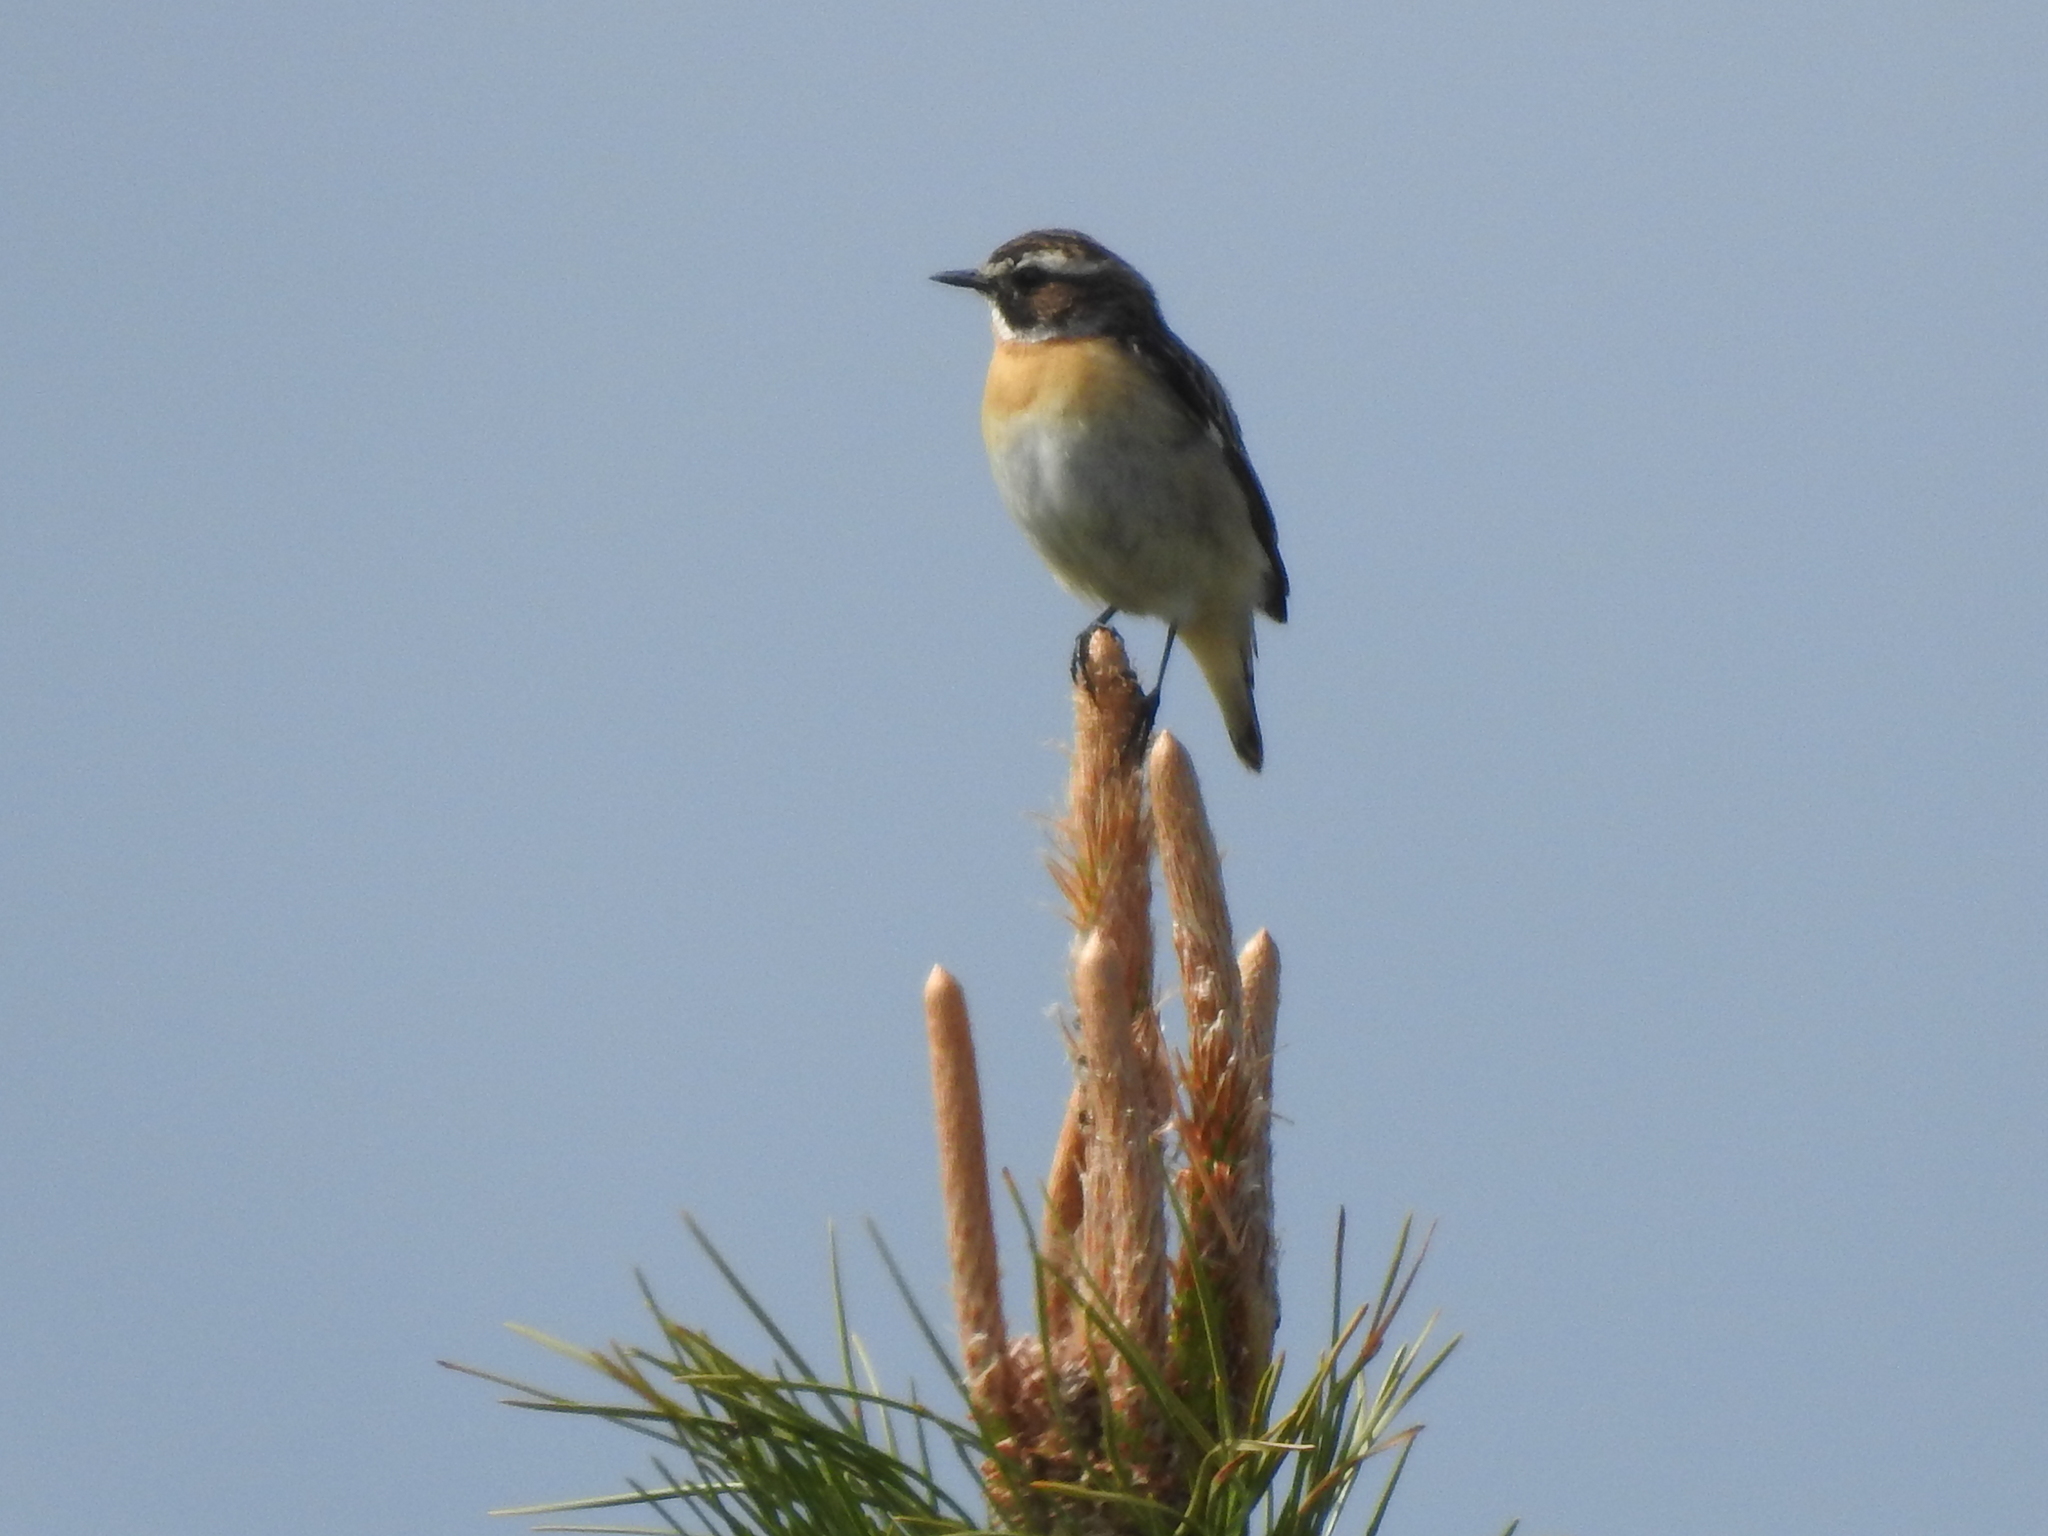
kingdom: Animalia
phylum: Chordata
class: Aves
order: Passeriformes
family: Muscicapidae
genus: Saxicola
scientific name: Saxicola rubetra
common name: Whinchat
